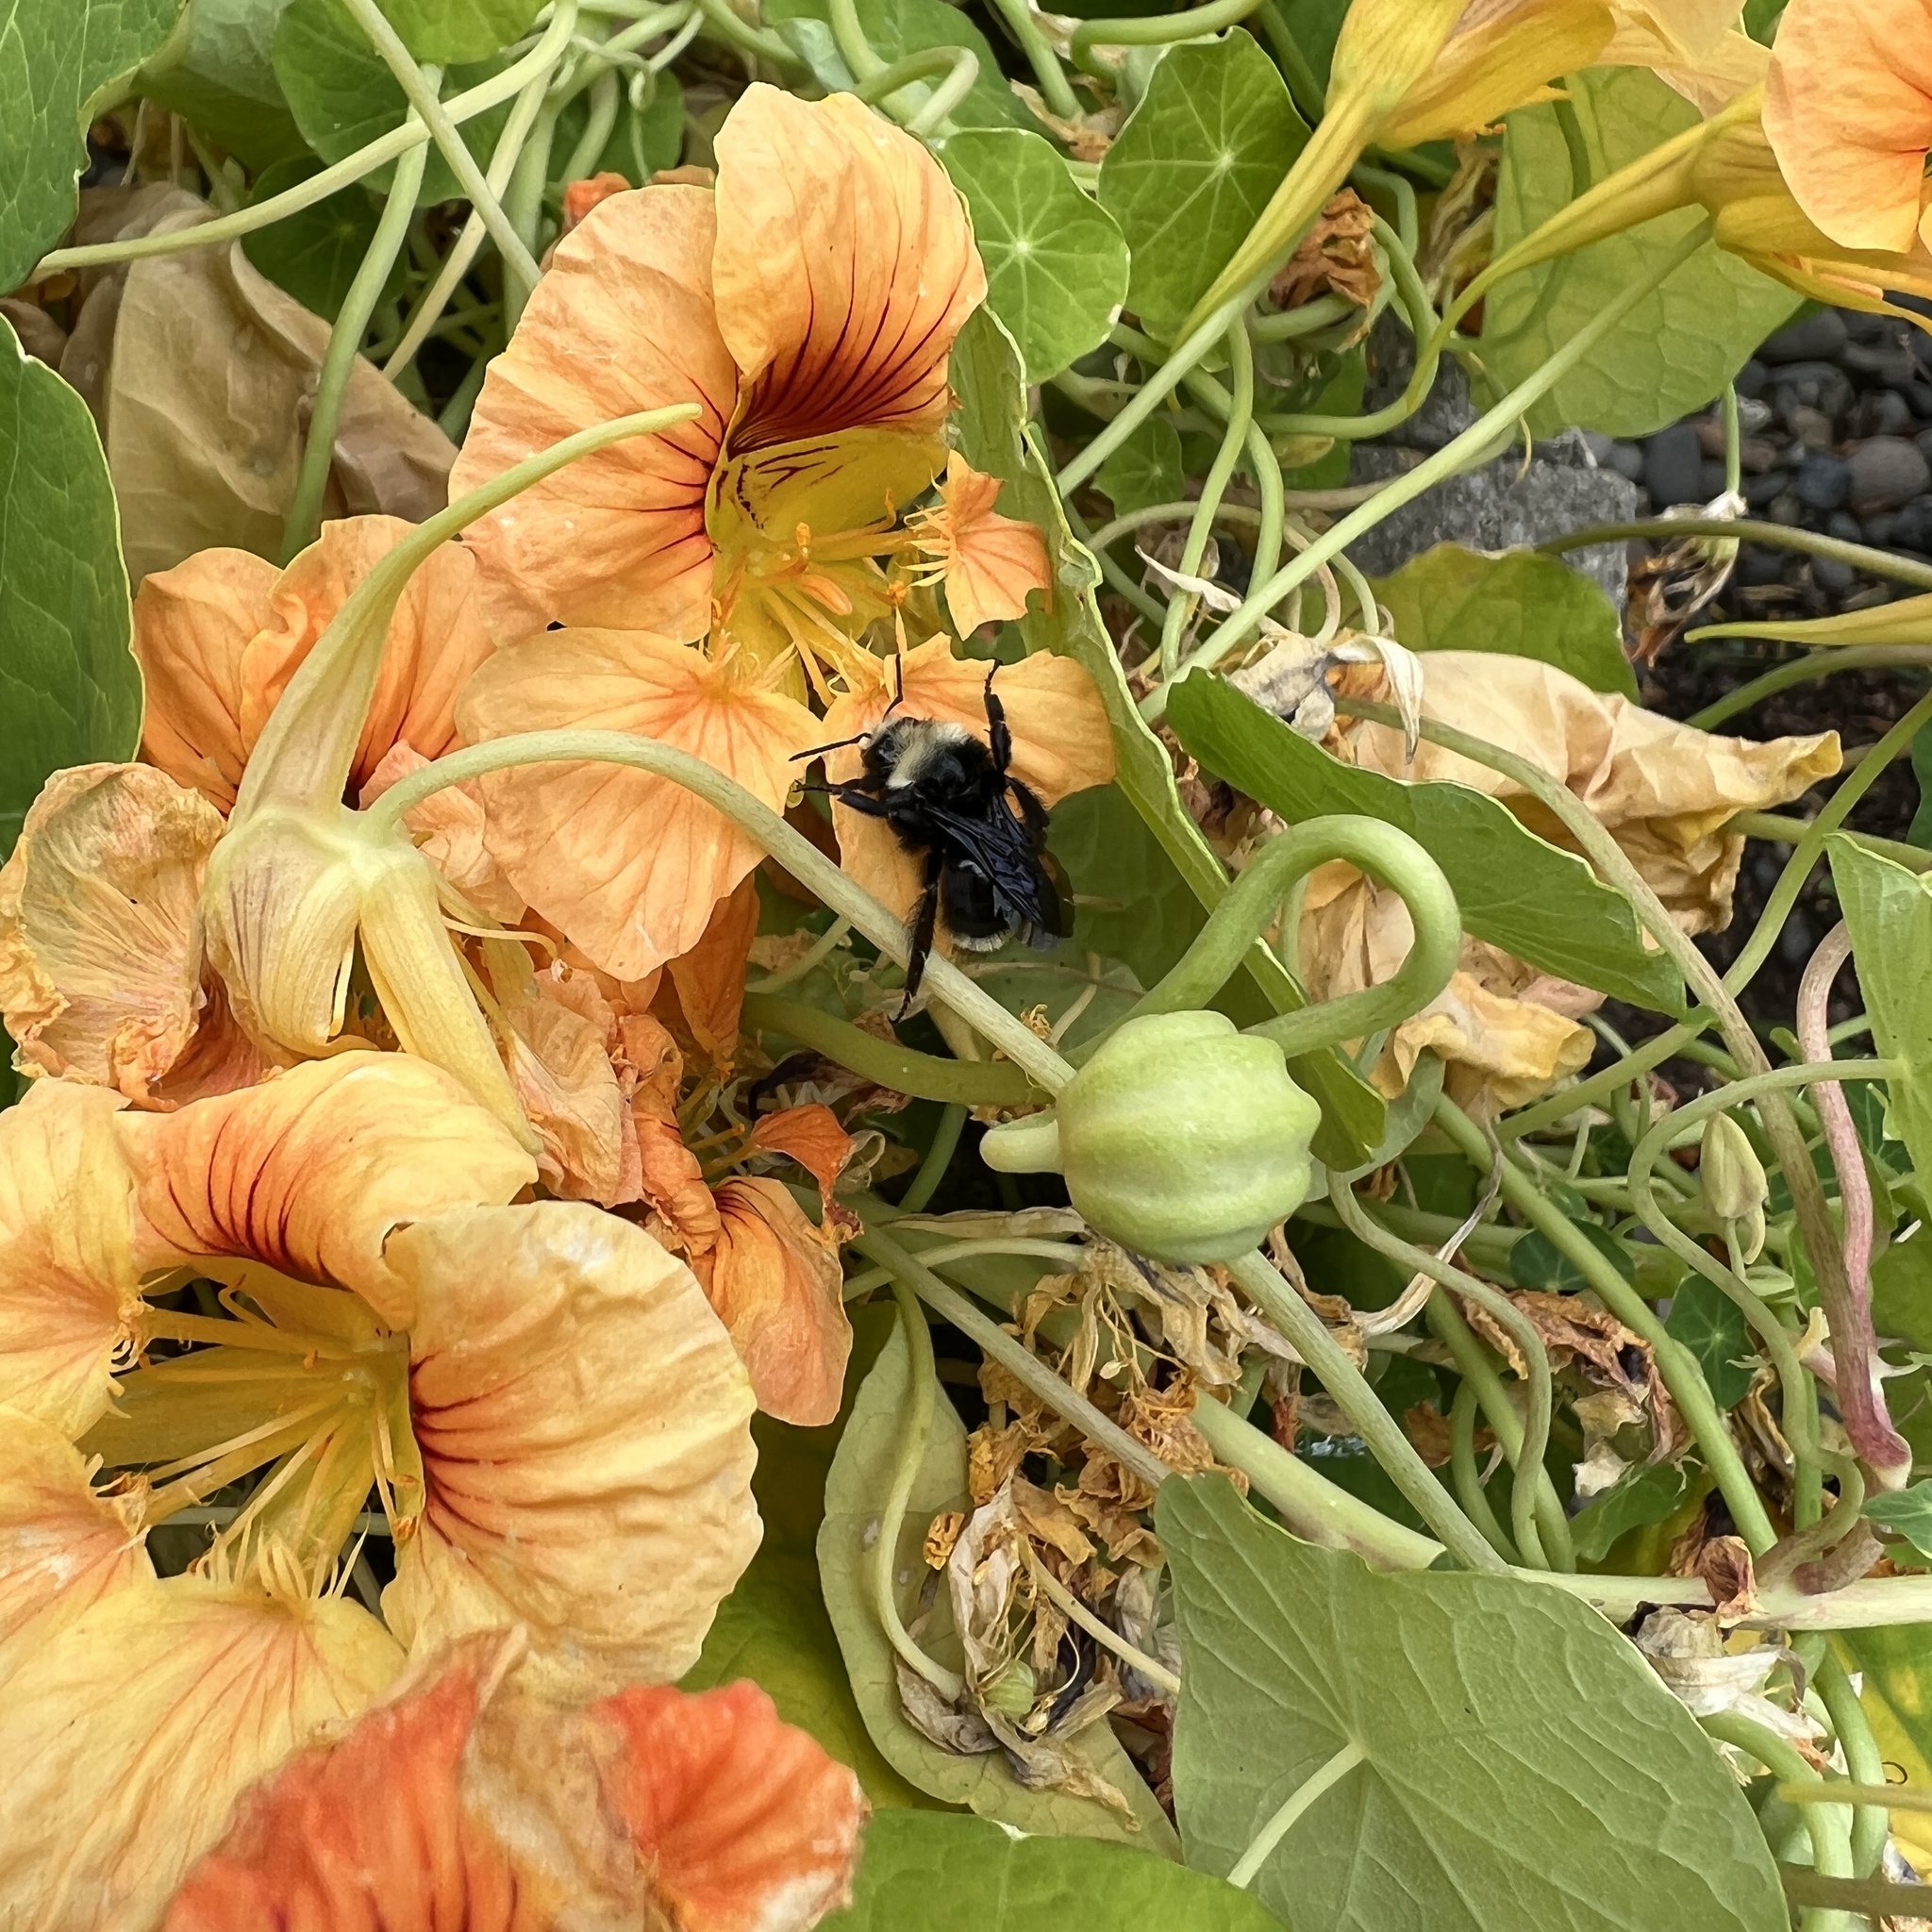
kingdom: Animalia
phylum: Arthropoda
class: Insecta
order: Hymenoptera
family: Apidae
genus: Bombus
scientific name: Bombus vosnesenskii
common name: Vosnesensky bumble bee
